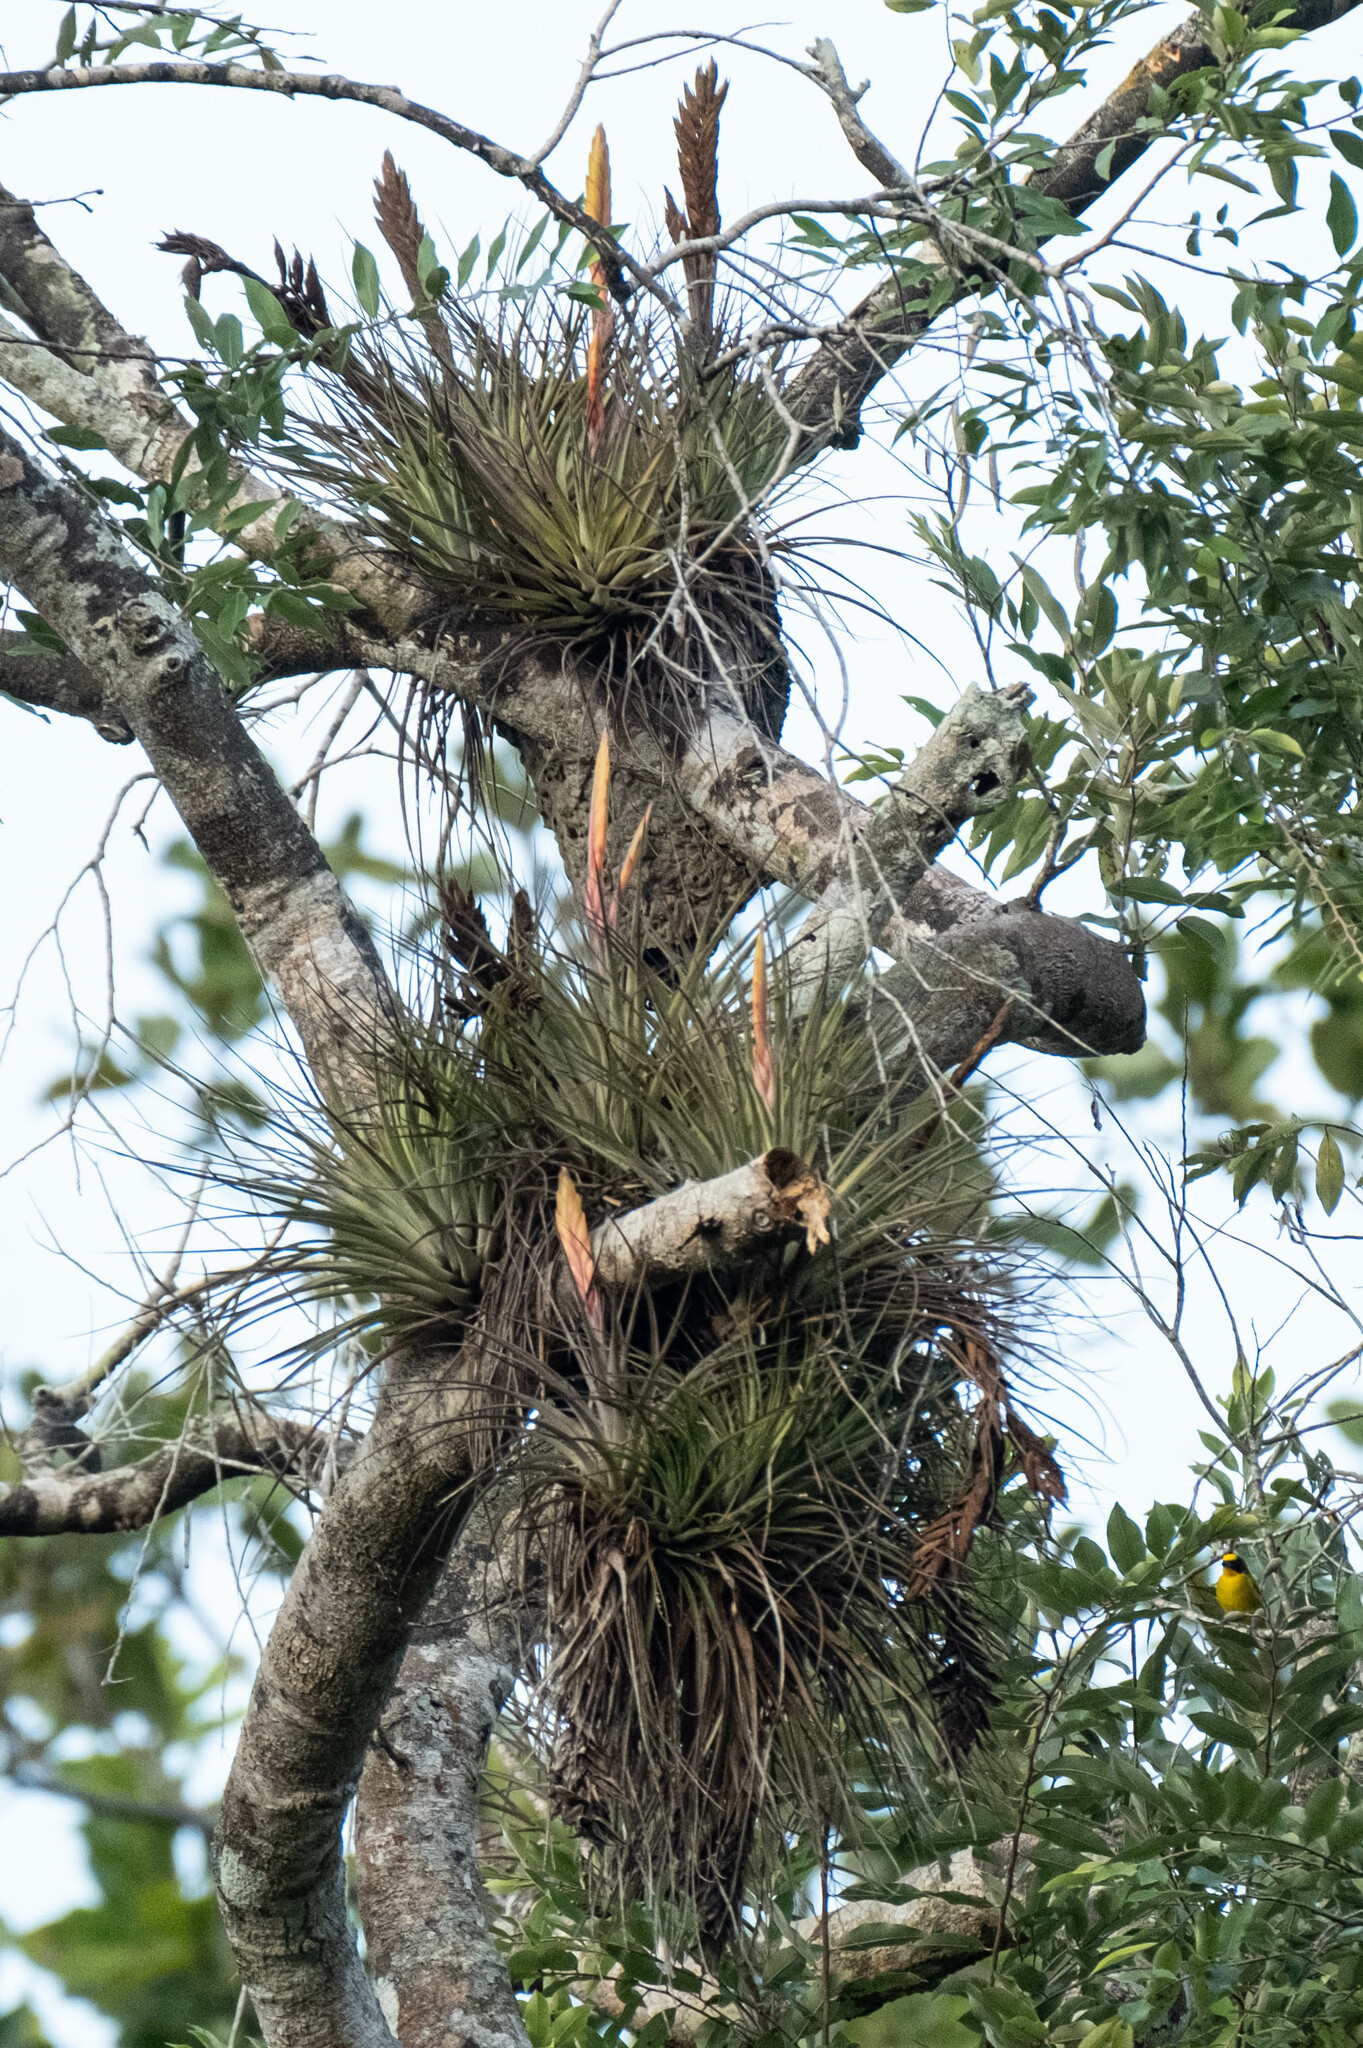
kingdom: Plantae
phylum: Tracheophyta
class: Liliopsida
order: Poales
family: Bromeliaceae
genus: Tillandsia
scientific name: Tillandsia fasciculata
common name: Giant airplant
